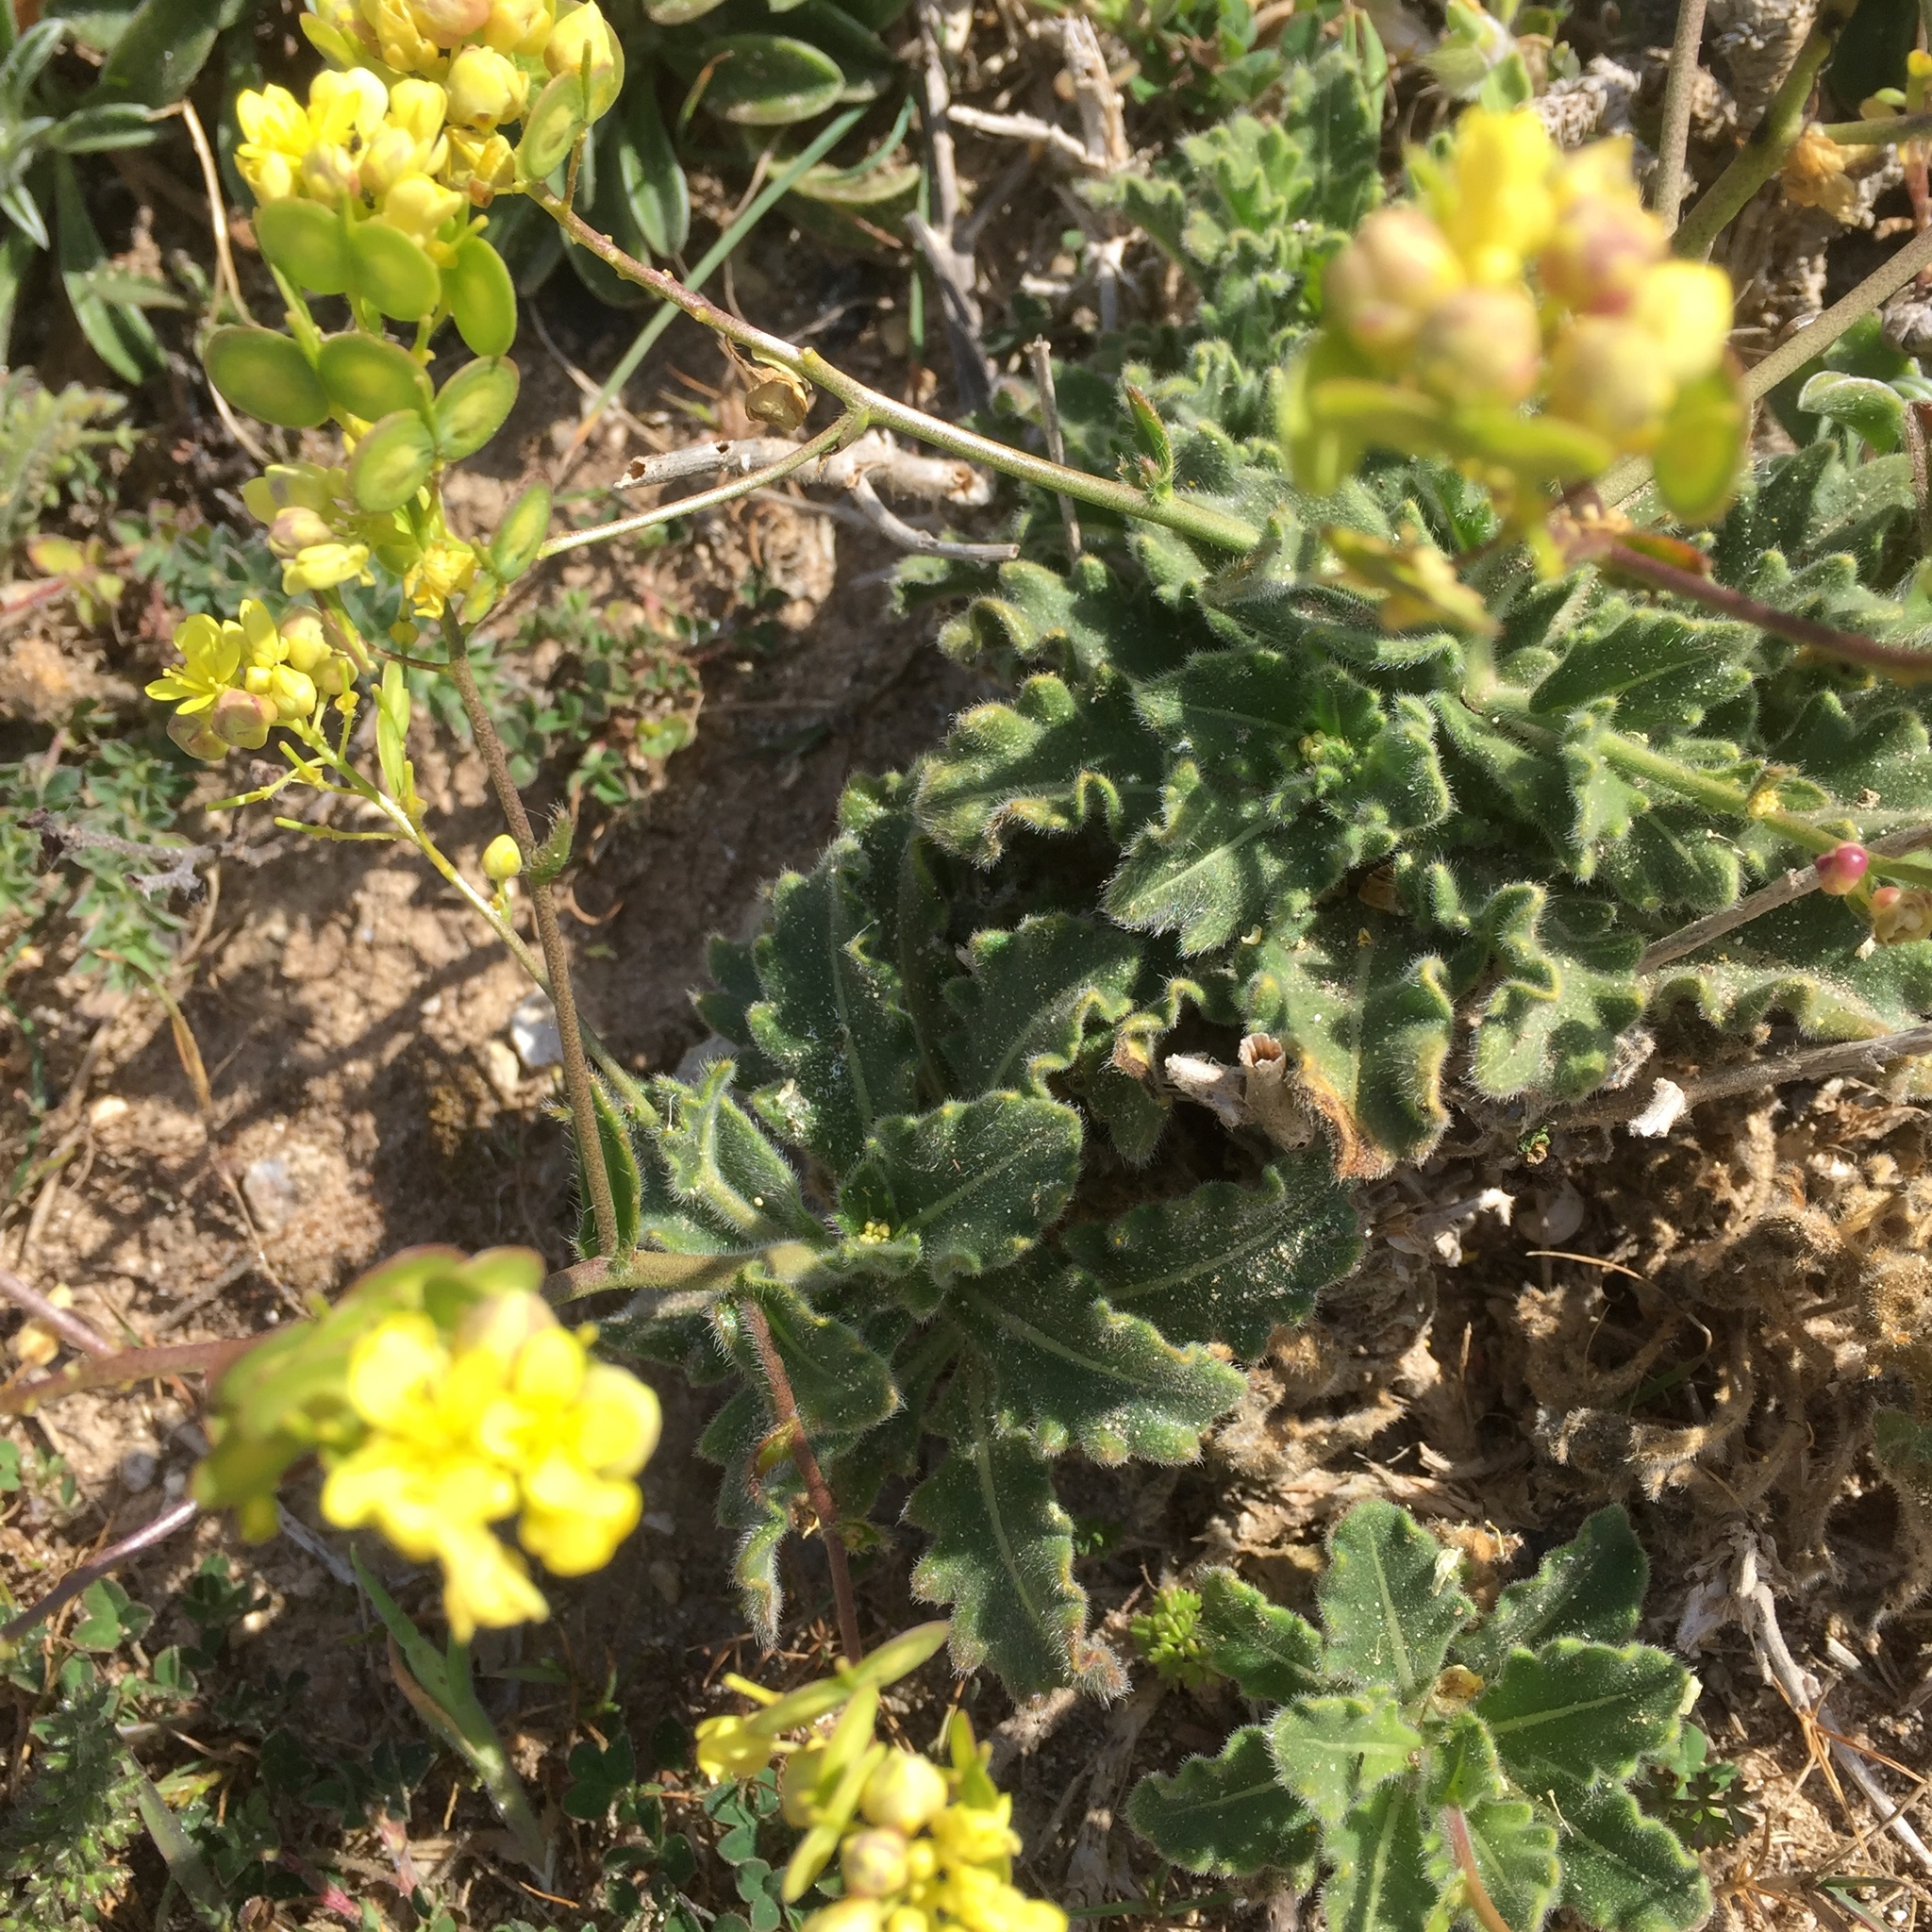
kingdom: Plantae
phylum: Tracheophyta
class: Magnoliopsida
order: Brassicales
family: Brassicaceae
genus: Biscutella
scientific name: Biscutella sempervirens
